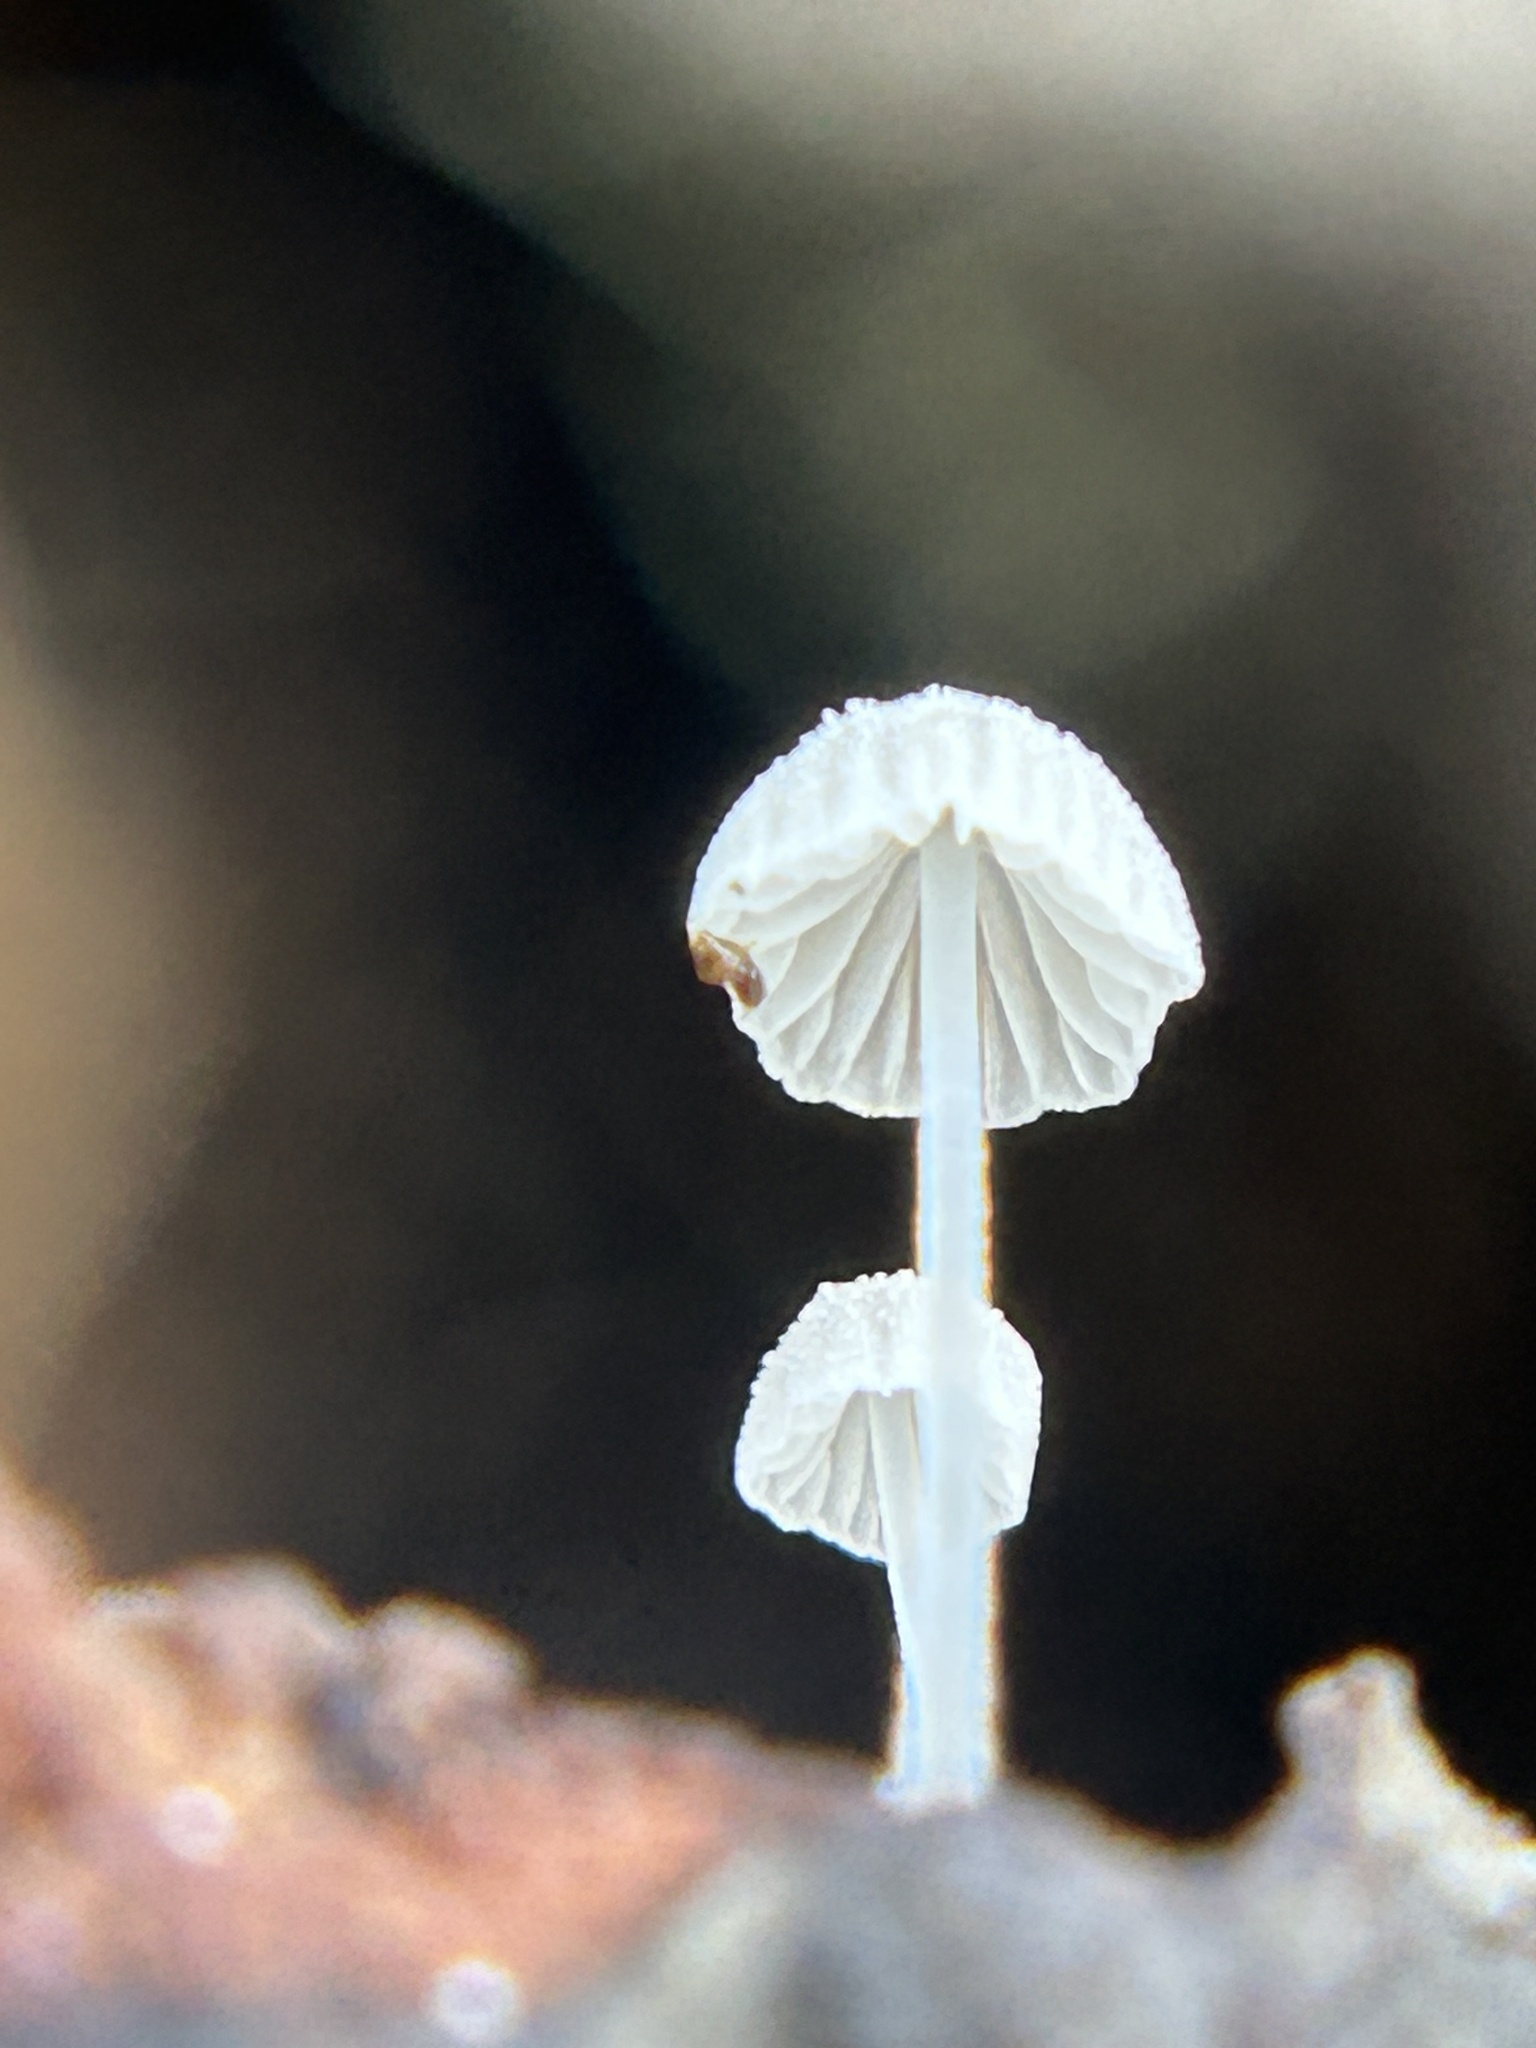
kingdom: Fungi
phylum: Basidiomycota
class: Agaricomycetes
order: Agaricales
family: Mycenaceae
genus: Mycena
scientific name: Mycena tenerrima
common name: Frosty bonnet
